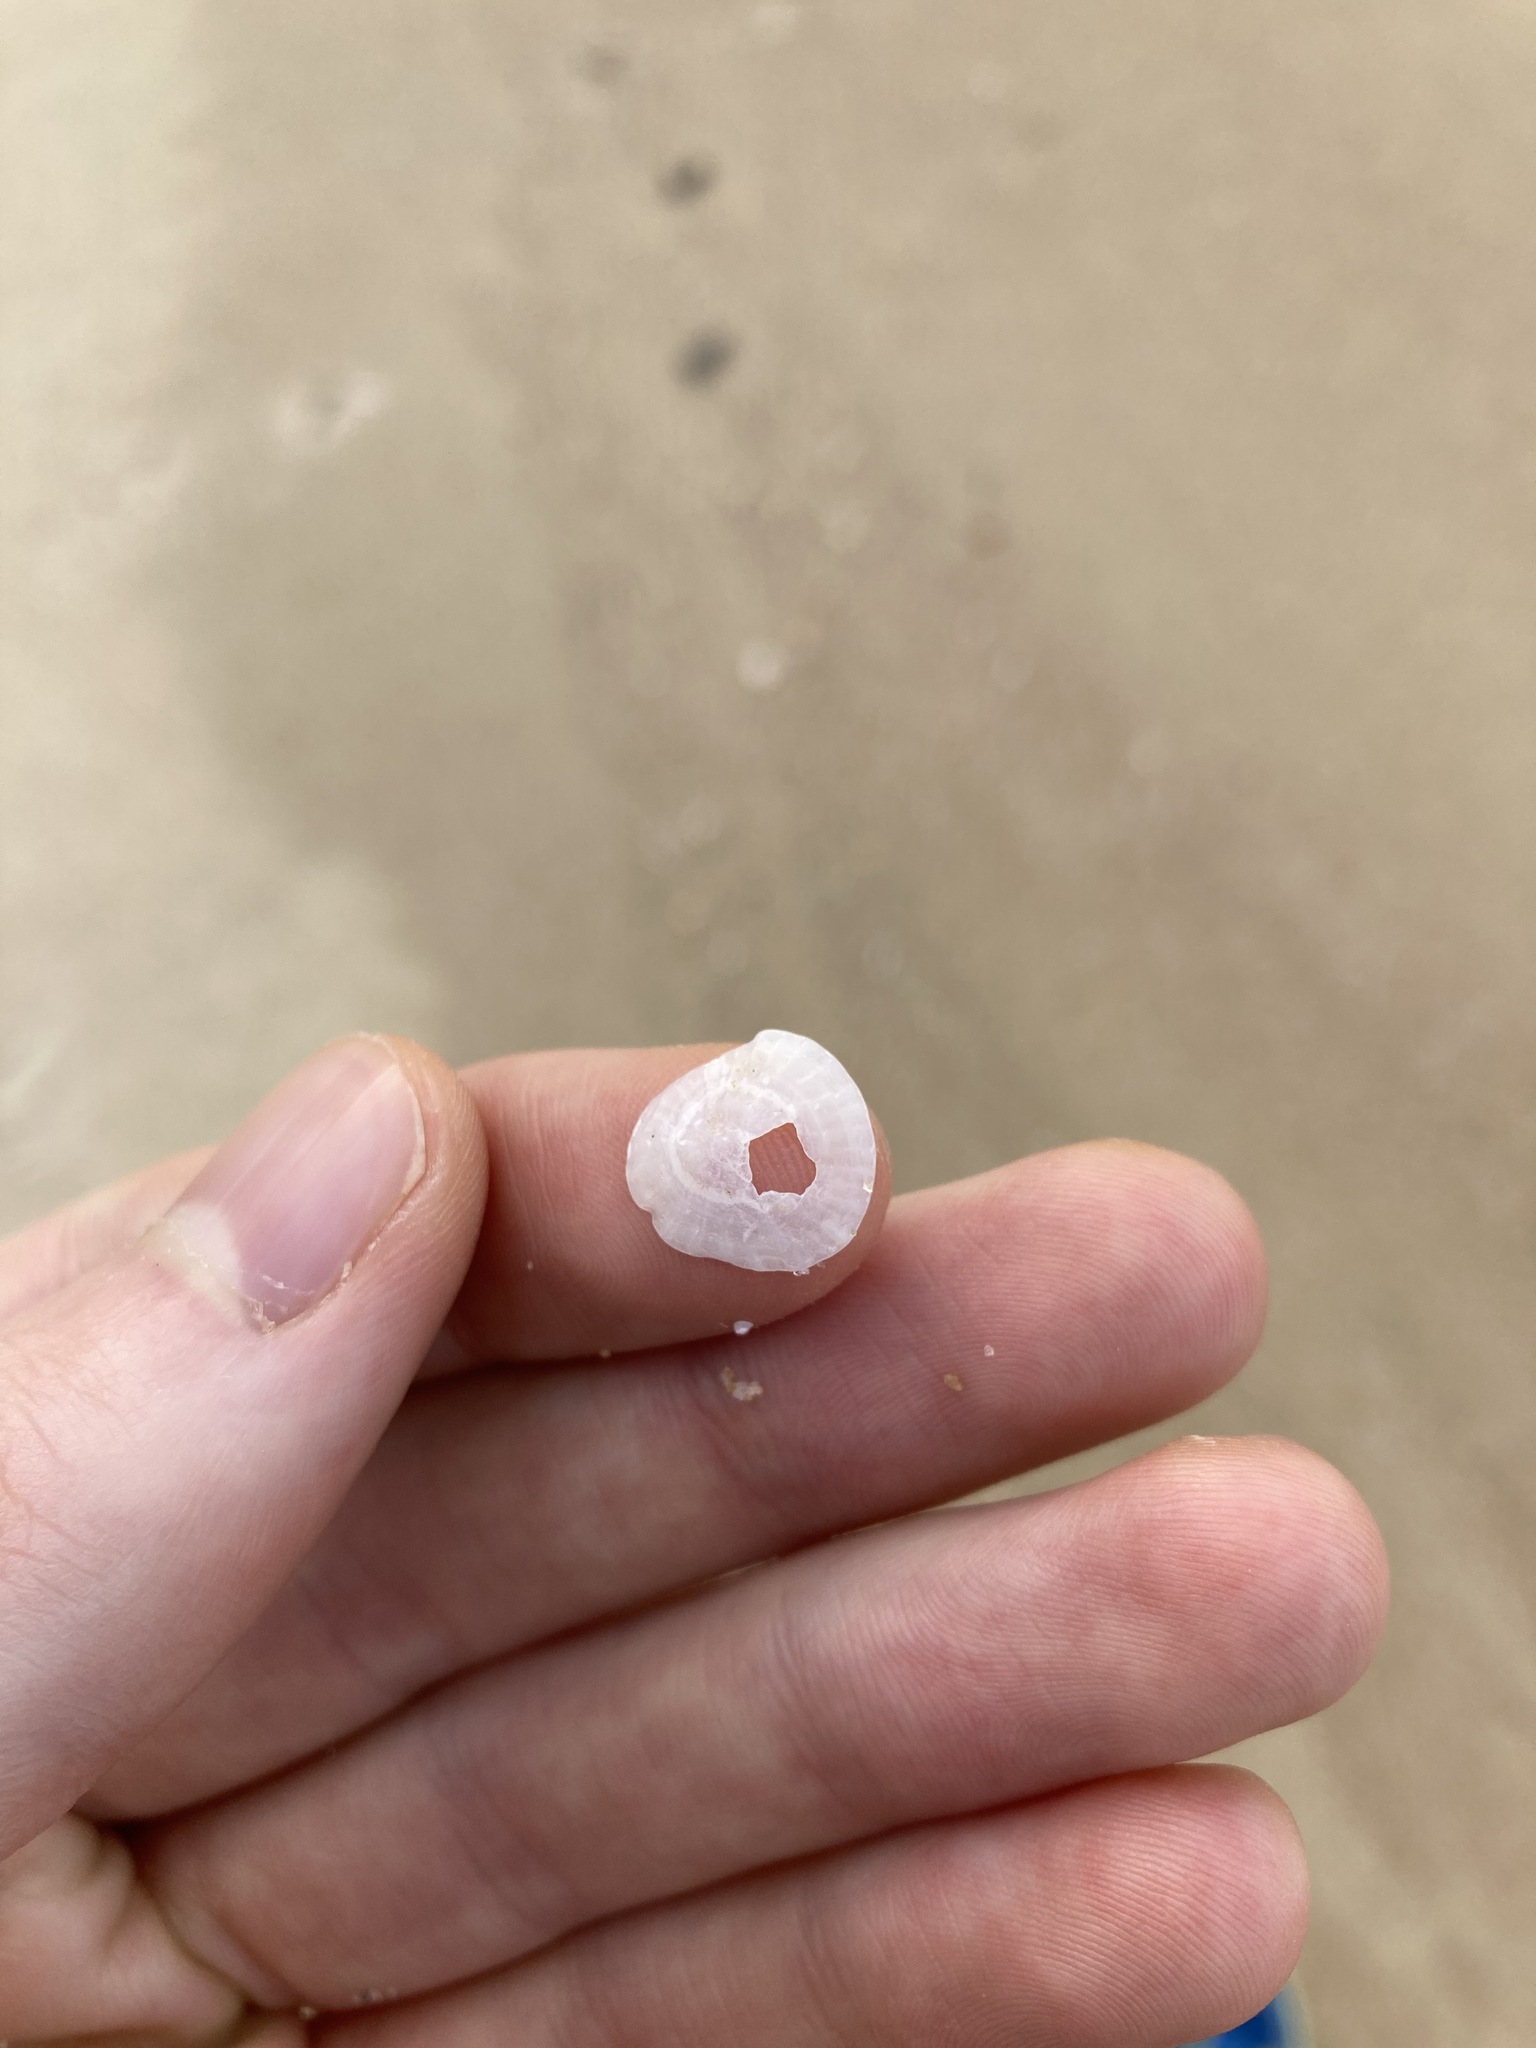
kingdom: Animalia
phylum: Mollusca
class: Gastropoda
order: Ellobiida
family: Trimusculidae
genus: Trimusculus
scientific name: Trimusculus conicus
